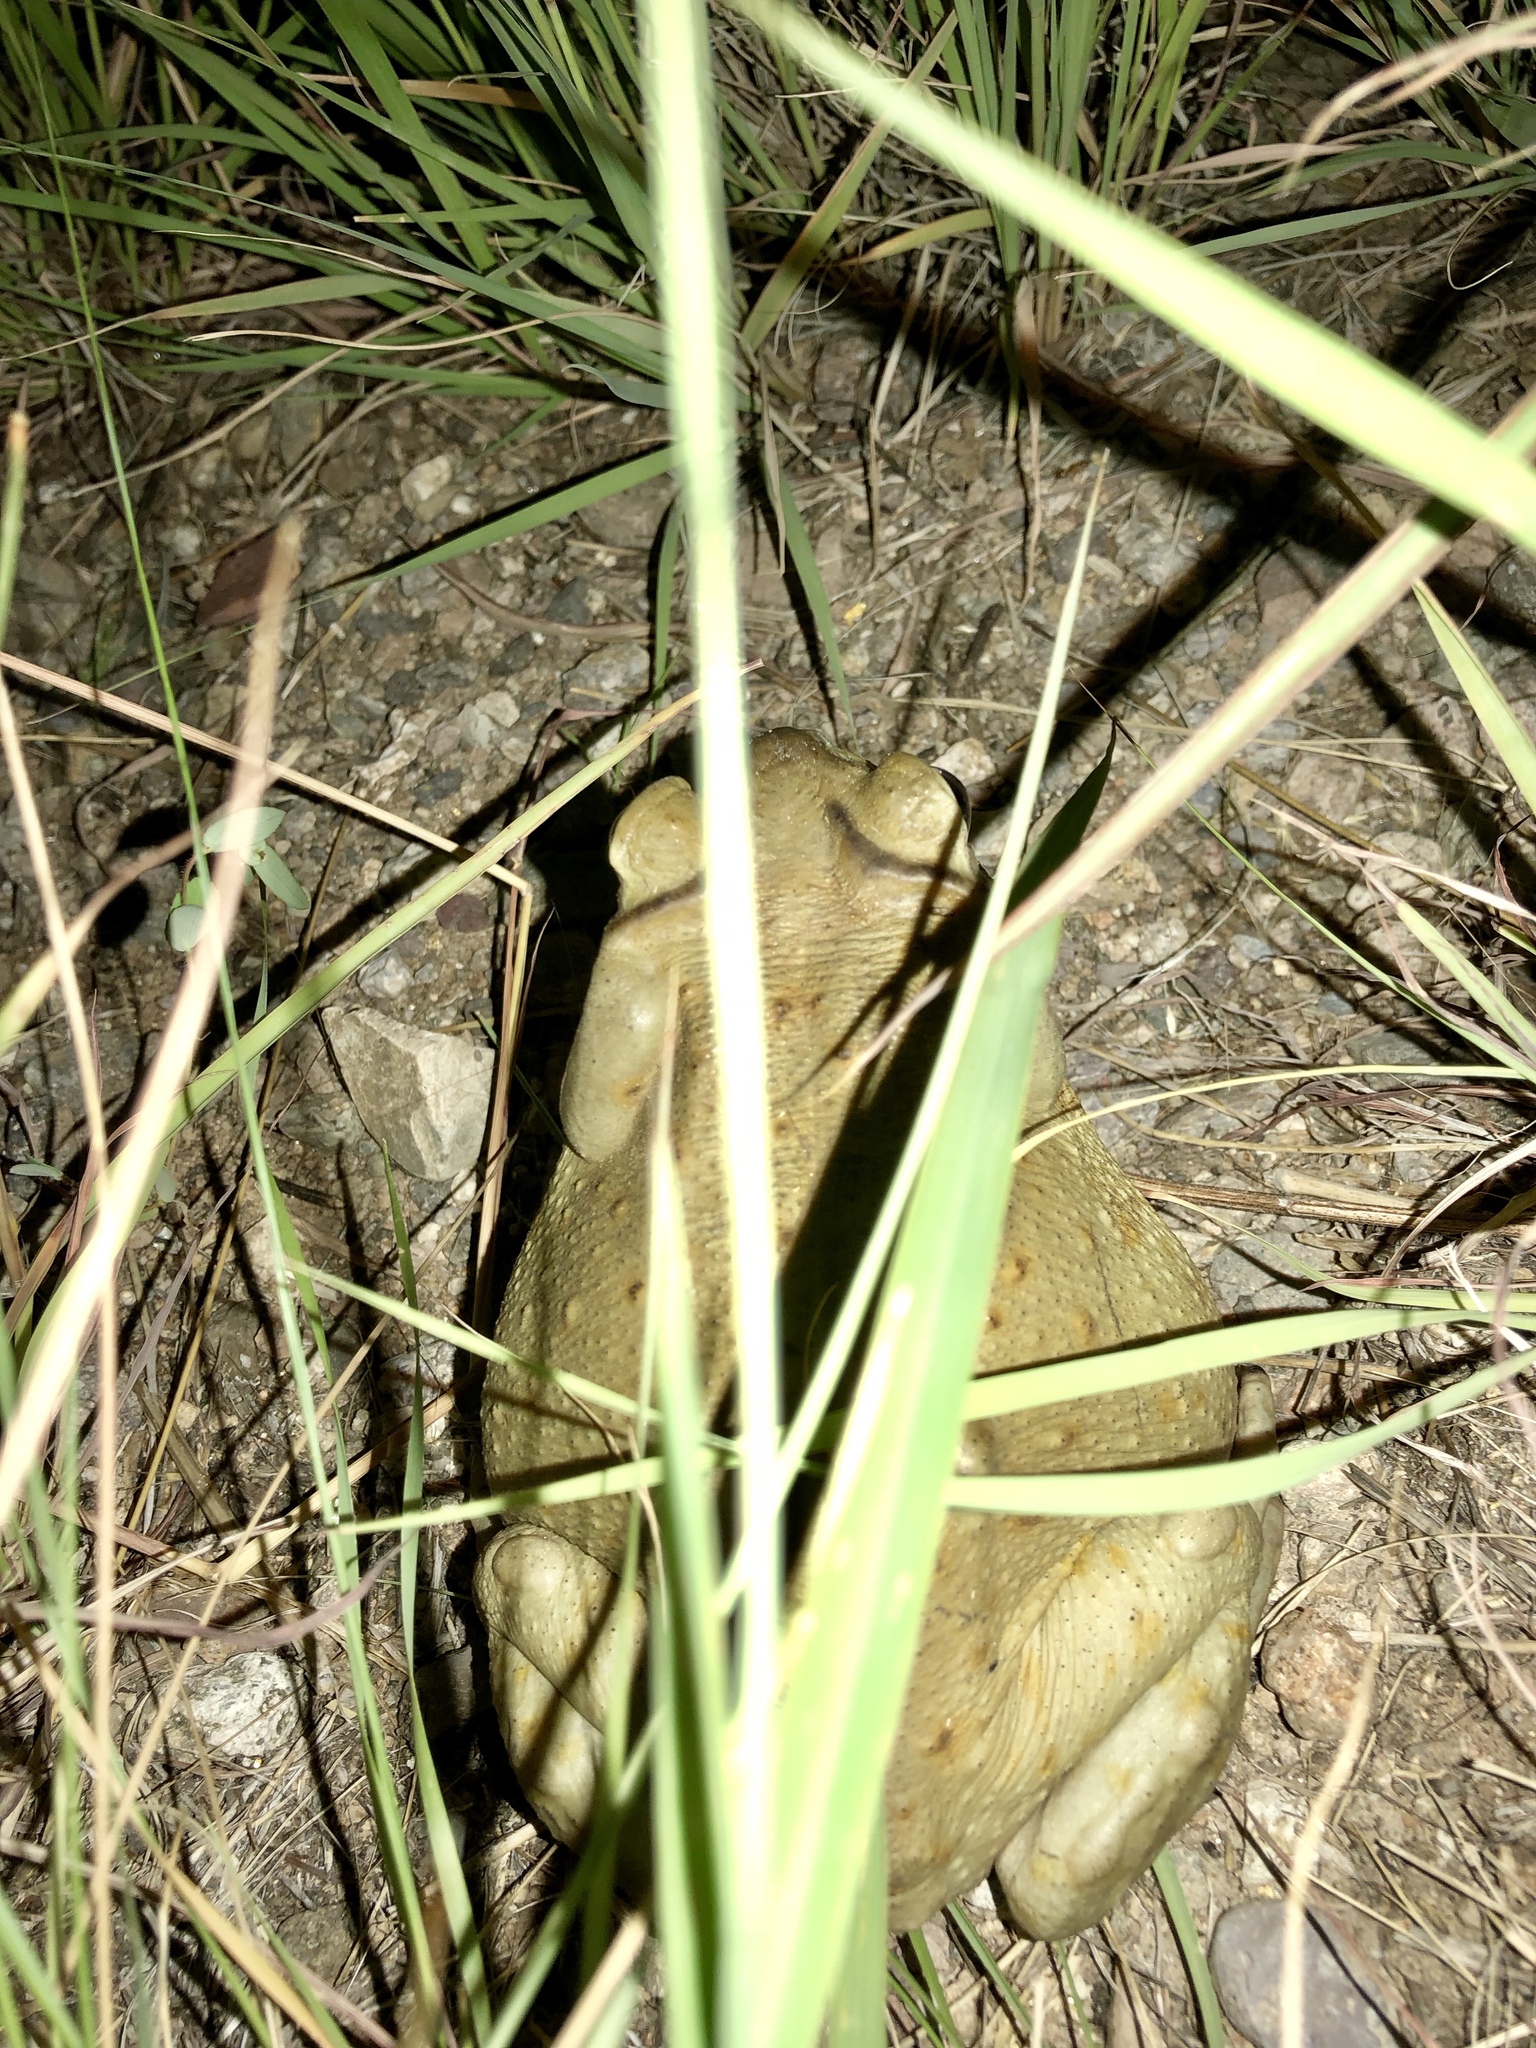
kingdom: Animalia
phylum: Chordata
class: Amphibia
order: Anura
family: Bufonidae
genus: Incilius
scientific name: Incilius alvarius
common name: Sonoran desert toad
